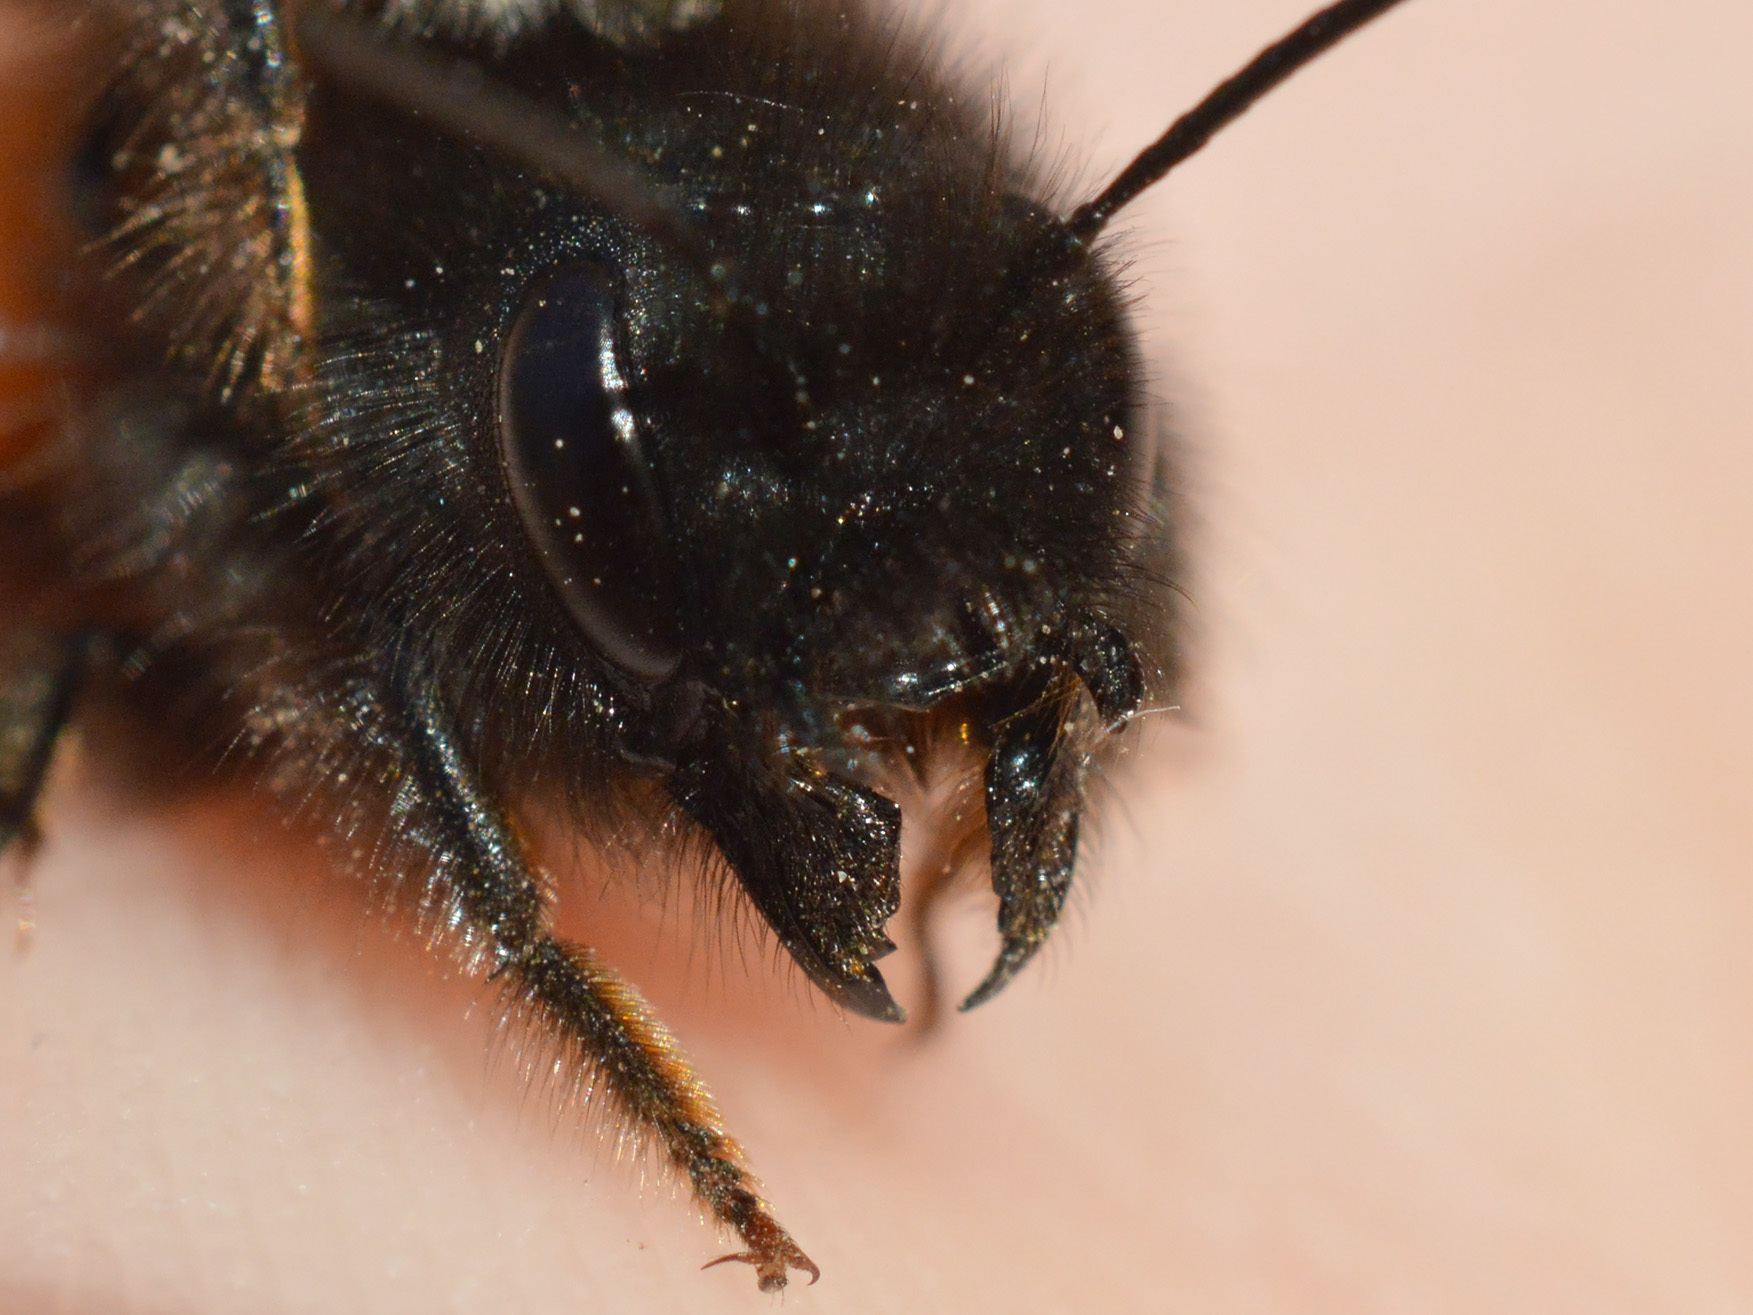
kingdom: Animalia
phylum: Arthropoda
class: Insecta
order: Hymenoptera
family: Megachilidae
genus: Osmia
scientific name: Osmia cornuta
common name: Mason bee
